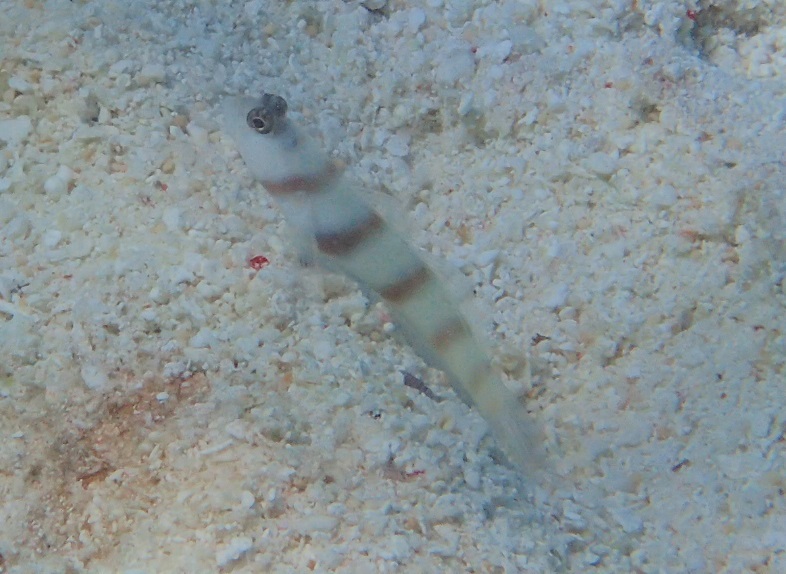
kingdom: Animalia
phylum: Chordata
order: Perciformes
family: Gobiidae
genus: Amblyeleotris
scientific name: Amblyeleotris steinitzi
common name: Steinitz' prawn-goby
